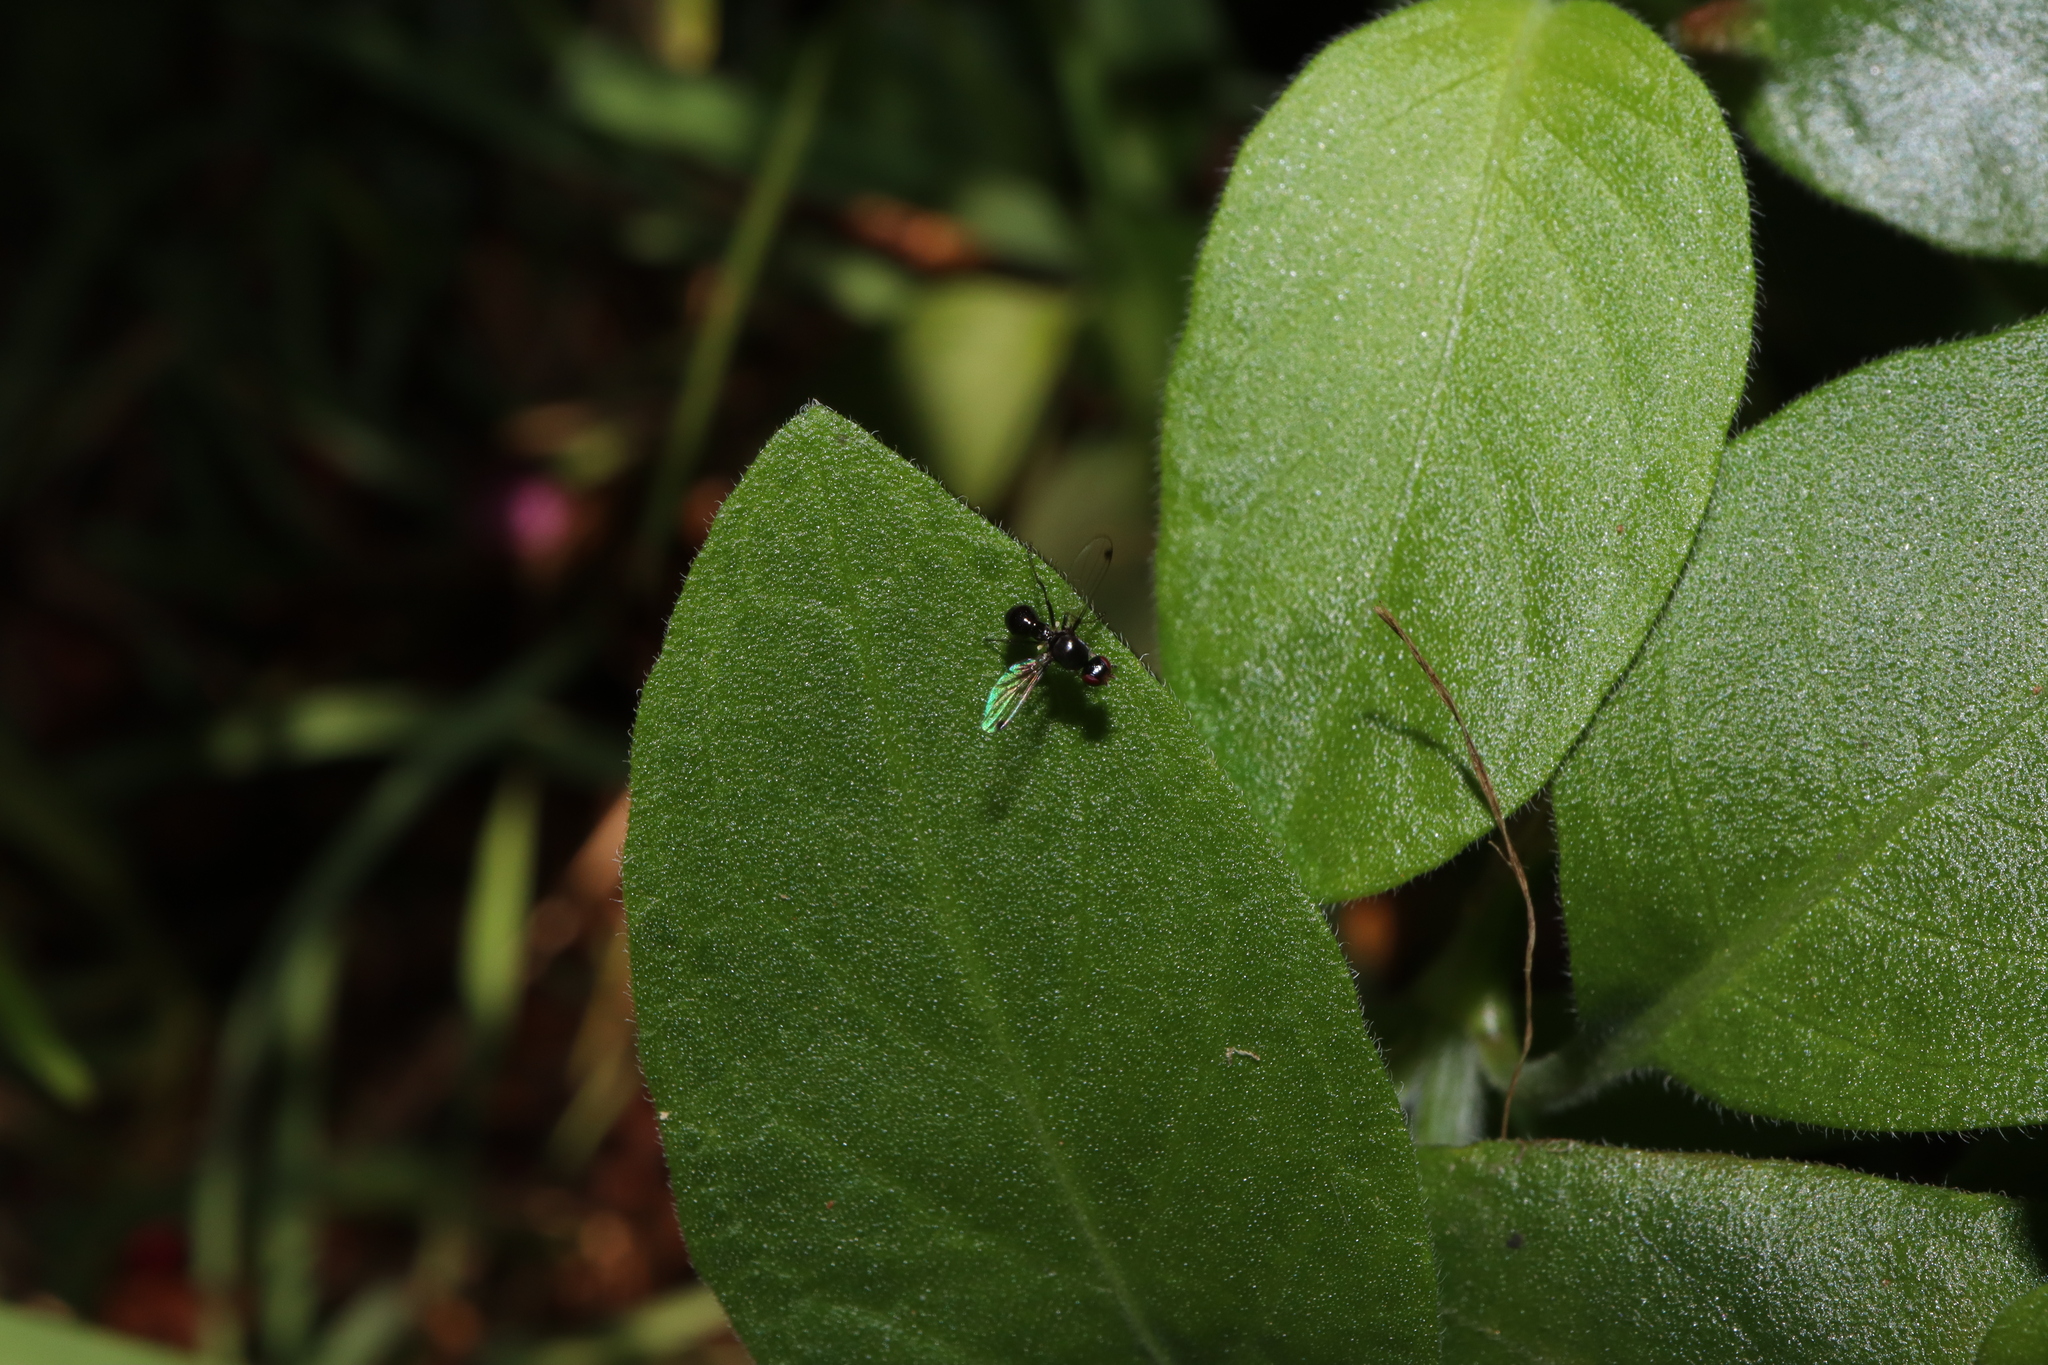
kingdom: Animalia
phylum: Arthropoda
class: Insecta
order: Diptera
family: Sepsidae
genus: Parapalaeosepsis
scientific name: Parapalaeosepsis plebeia
